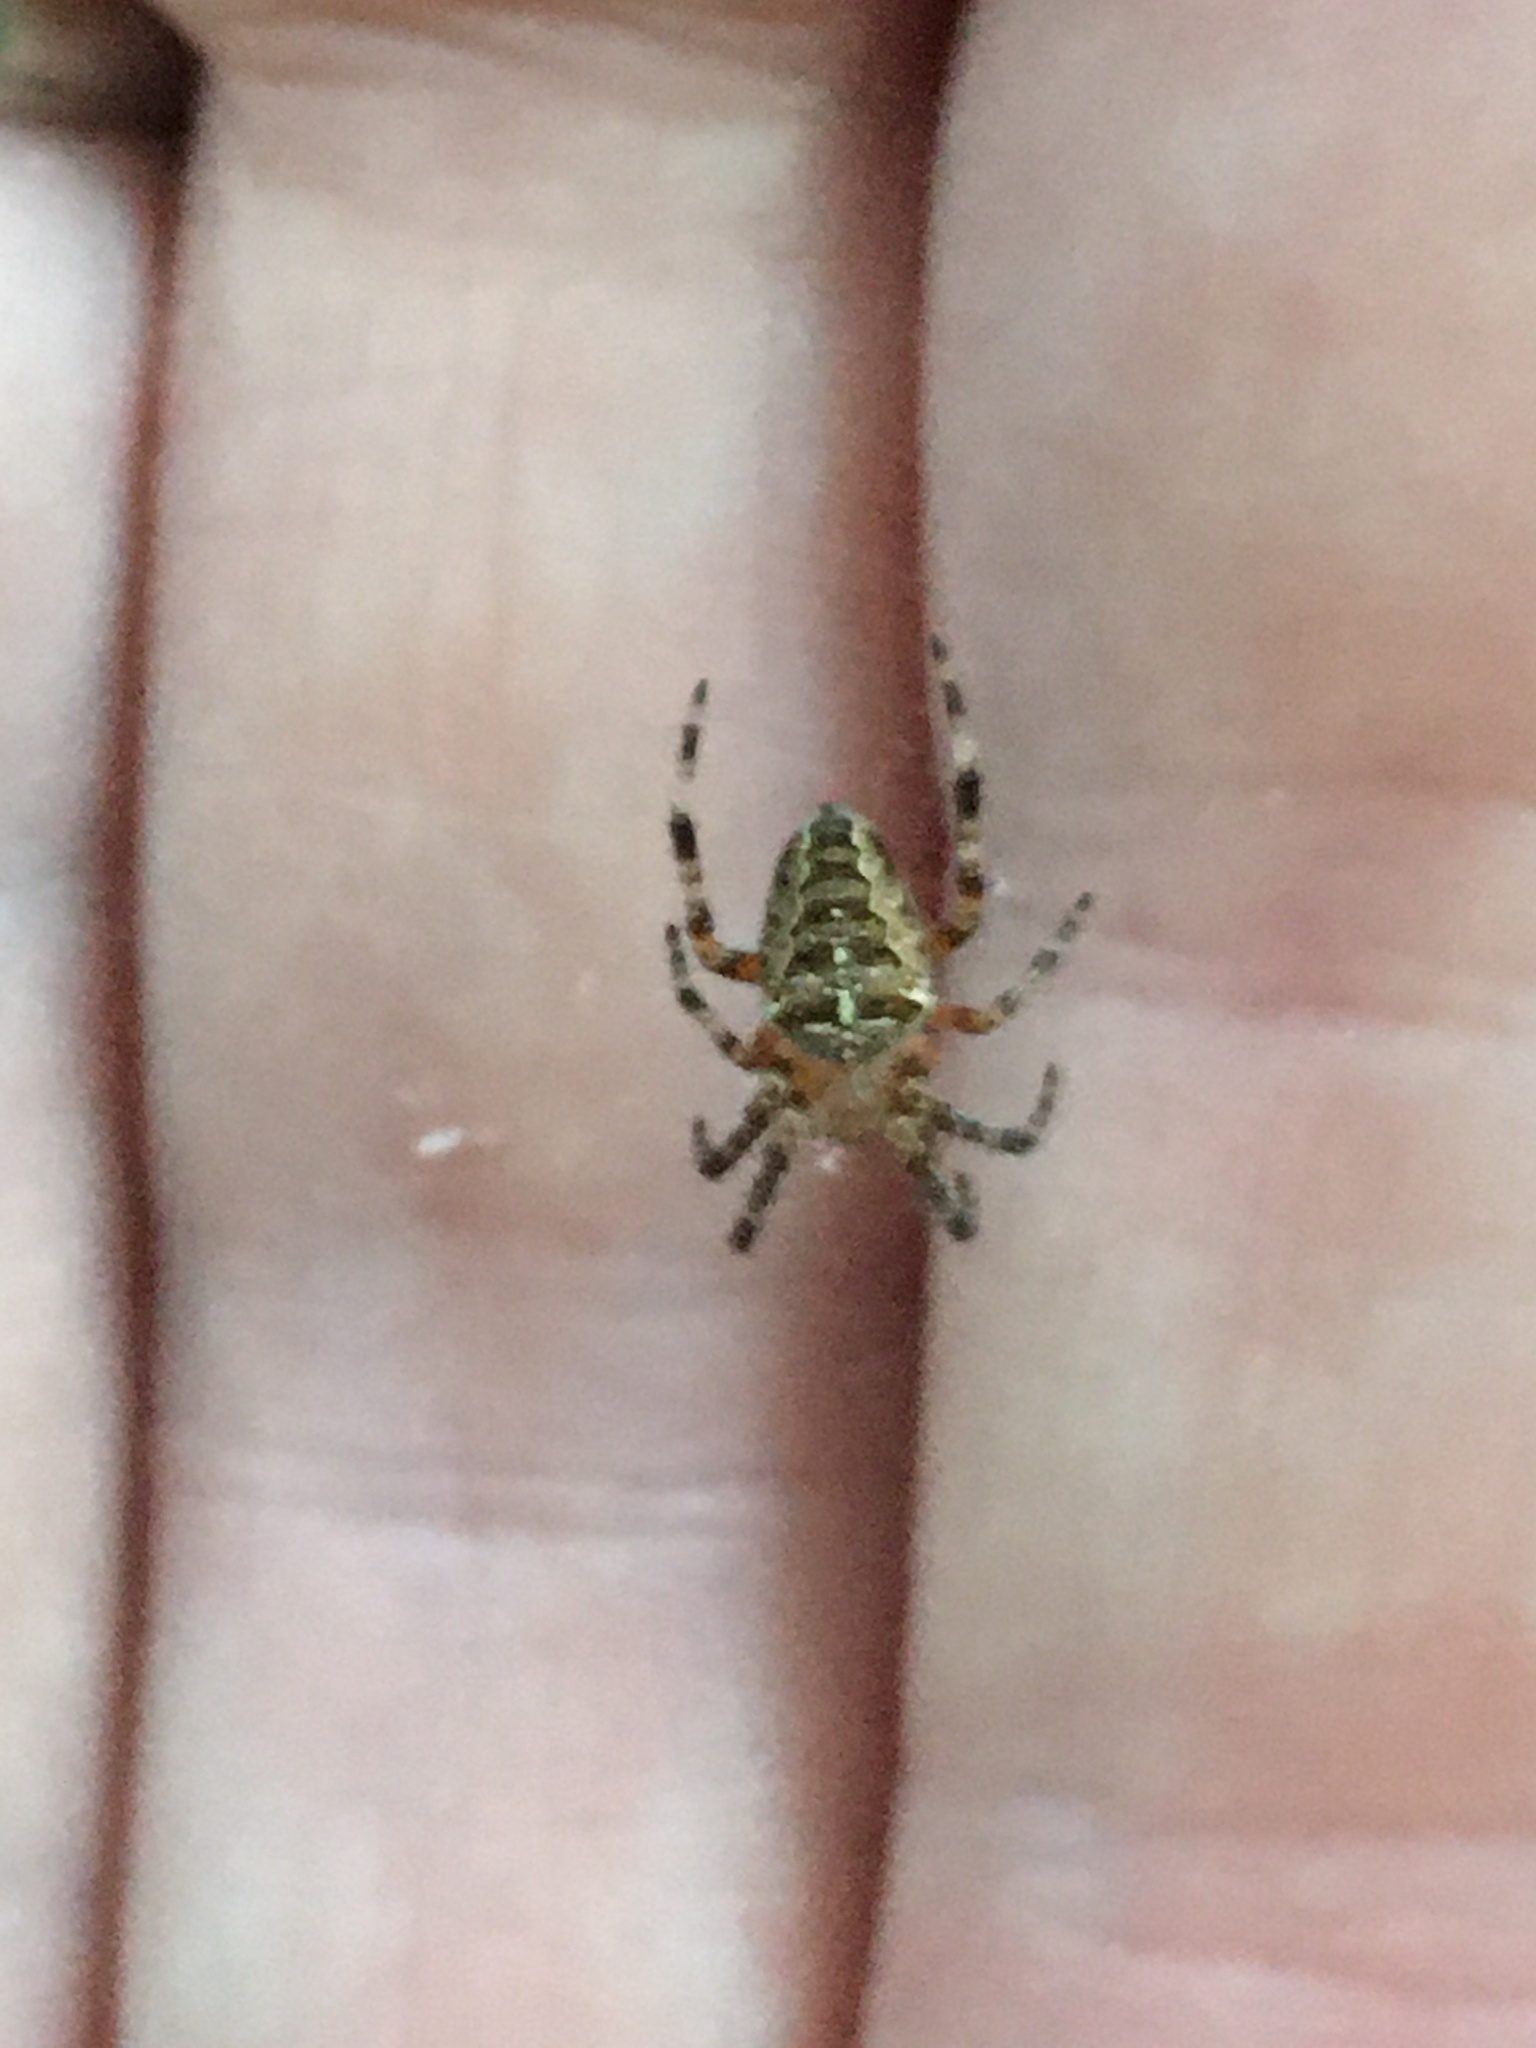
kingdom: Animalia
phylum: Arthropoda
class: Arachnida
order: Araneae
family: Araneidae
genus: Araneus
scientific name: Araneus diadematus
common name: Cross orbweaver
